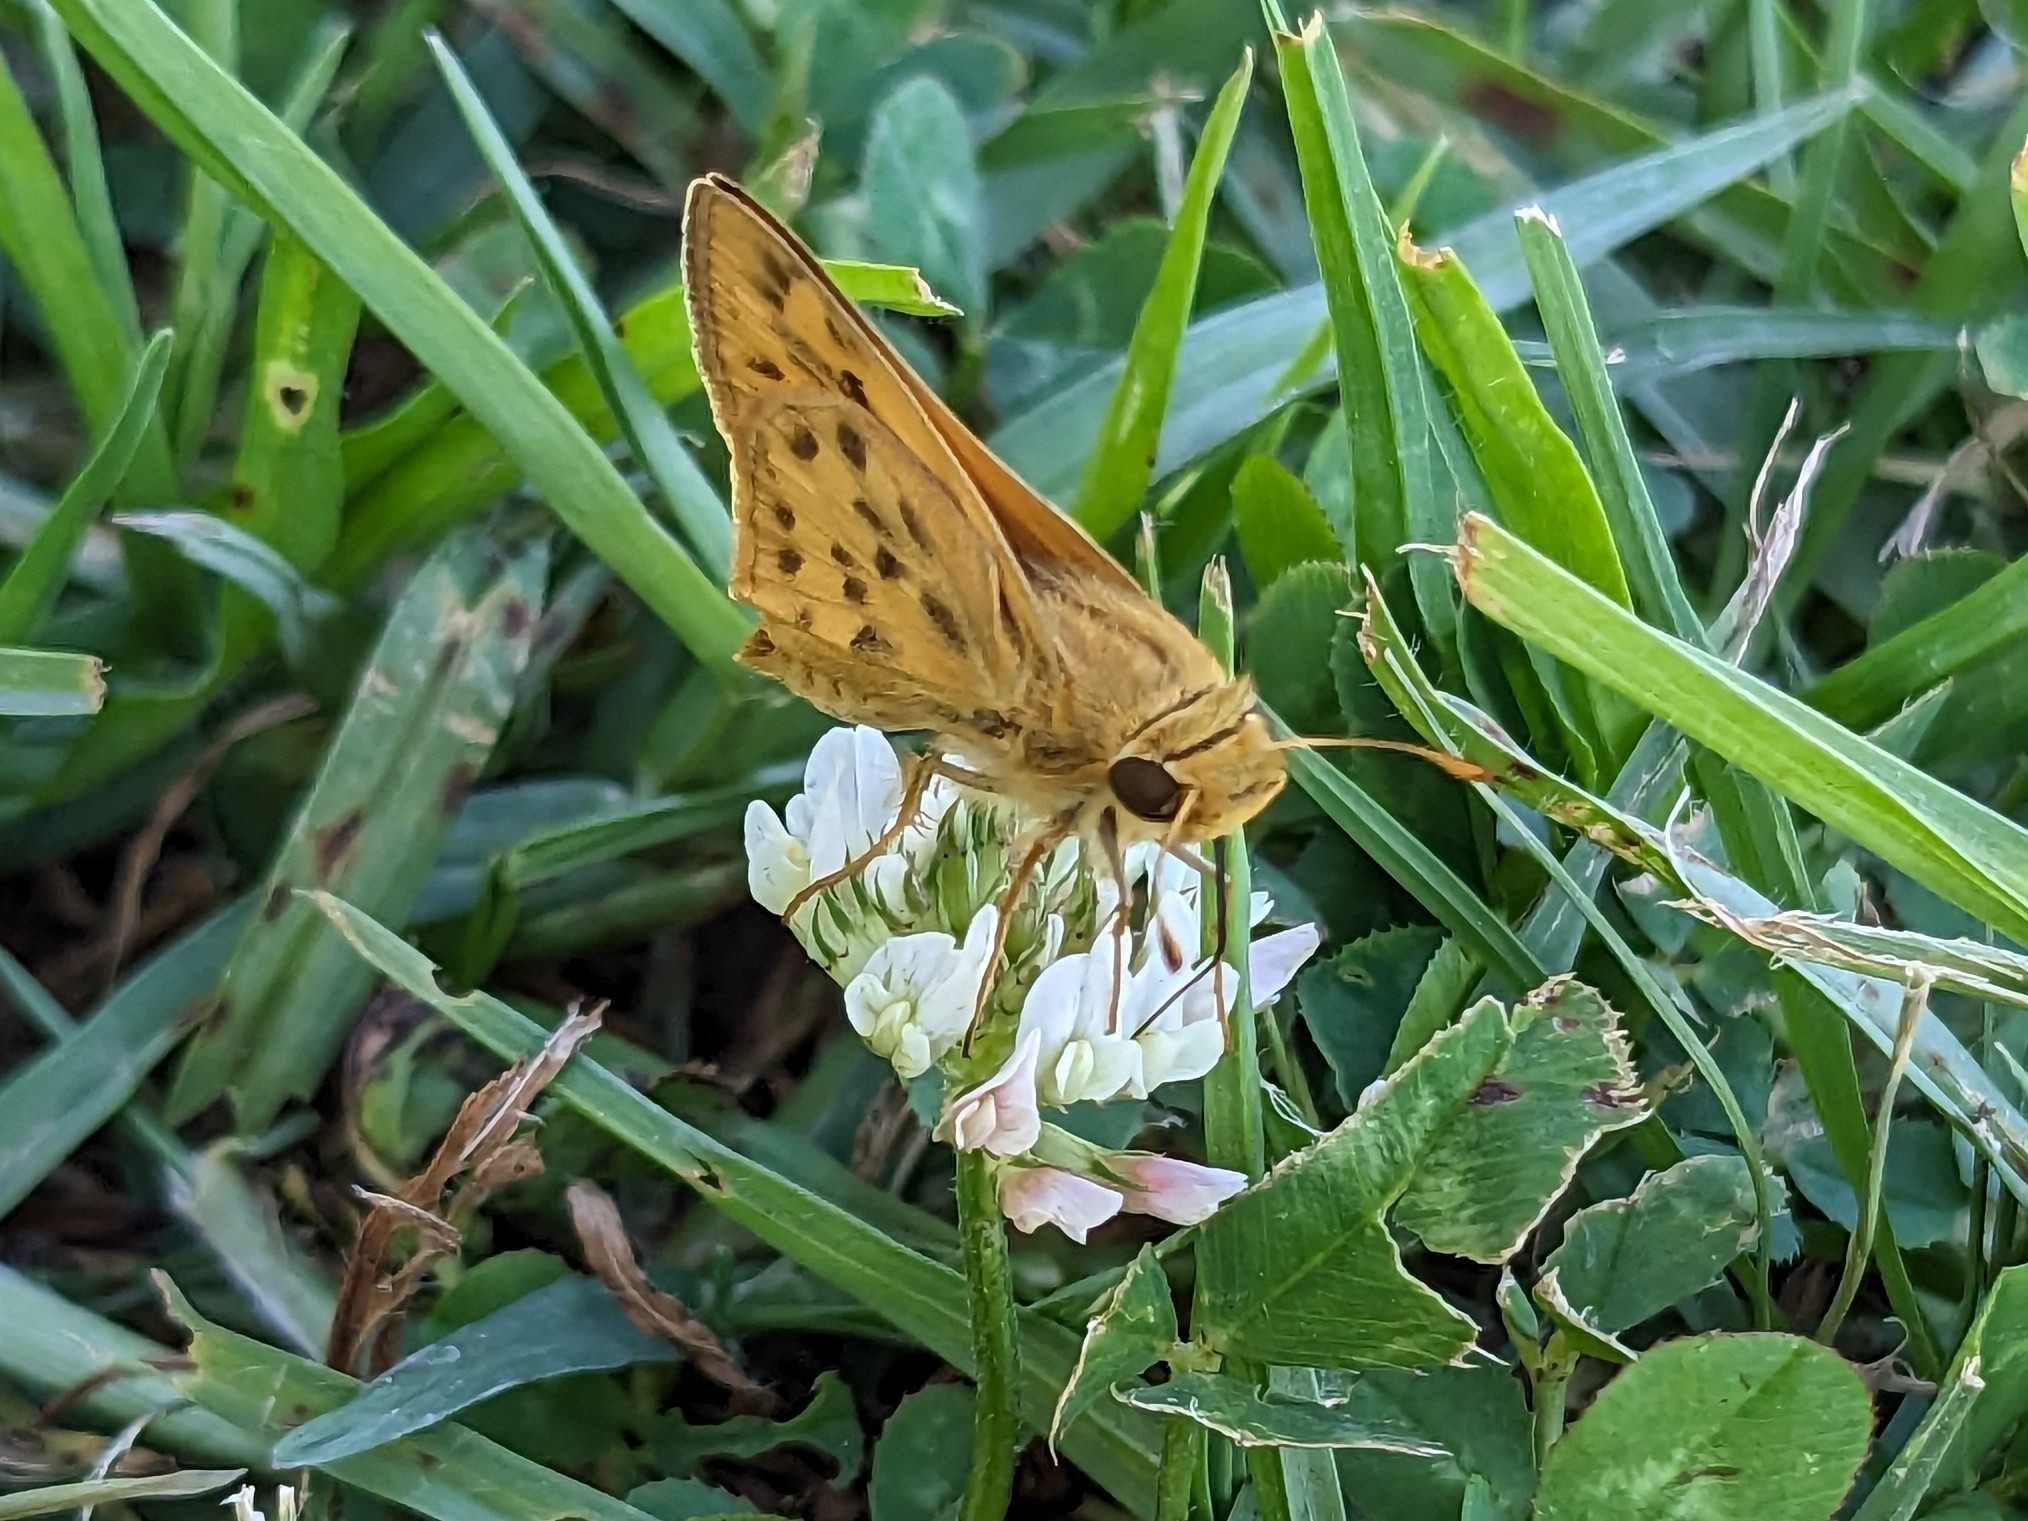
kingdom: Animalia
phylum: Arthropoda
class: Insecta
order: Lepidoptera
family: Hesperiidae
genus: Hylephila
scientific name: Hylephila phyleus
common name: Fiery skipper
